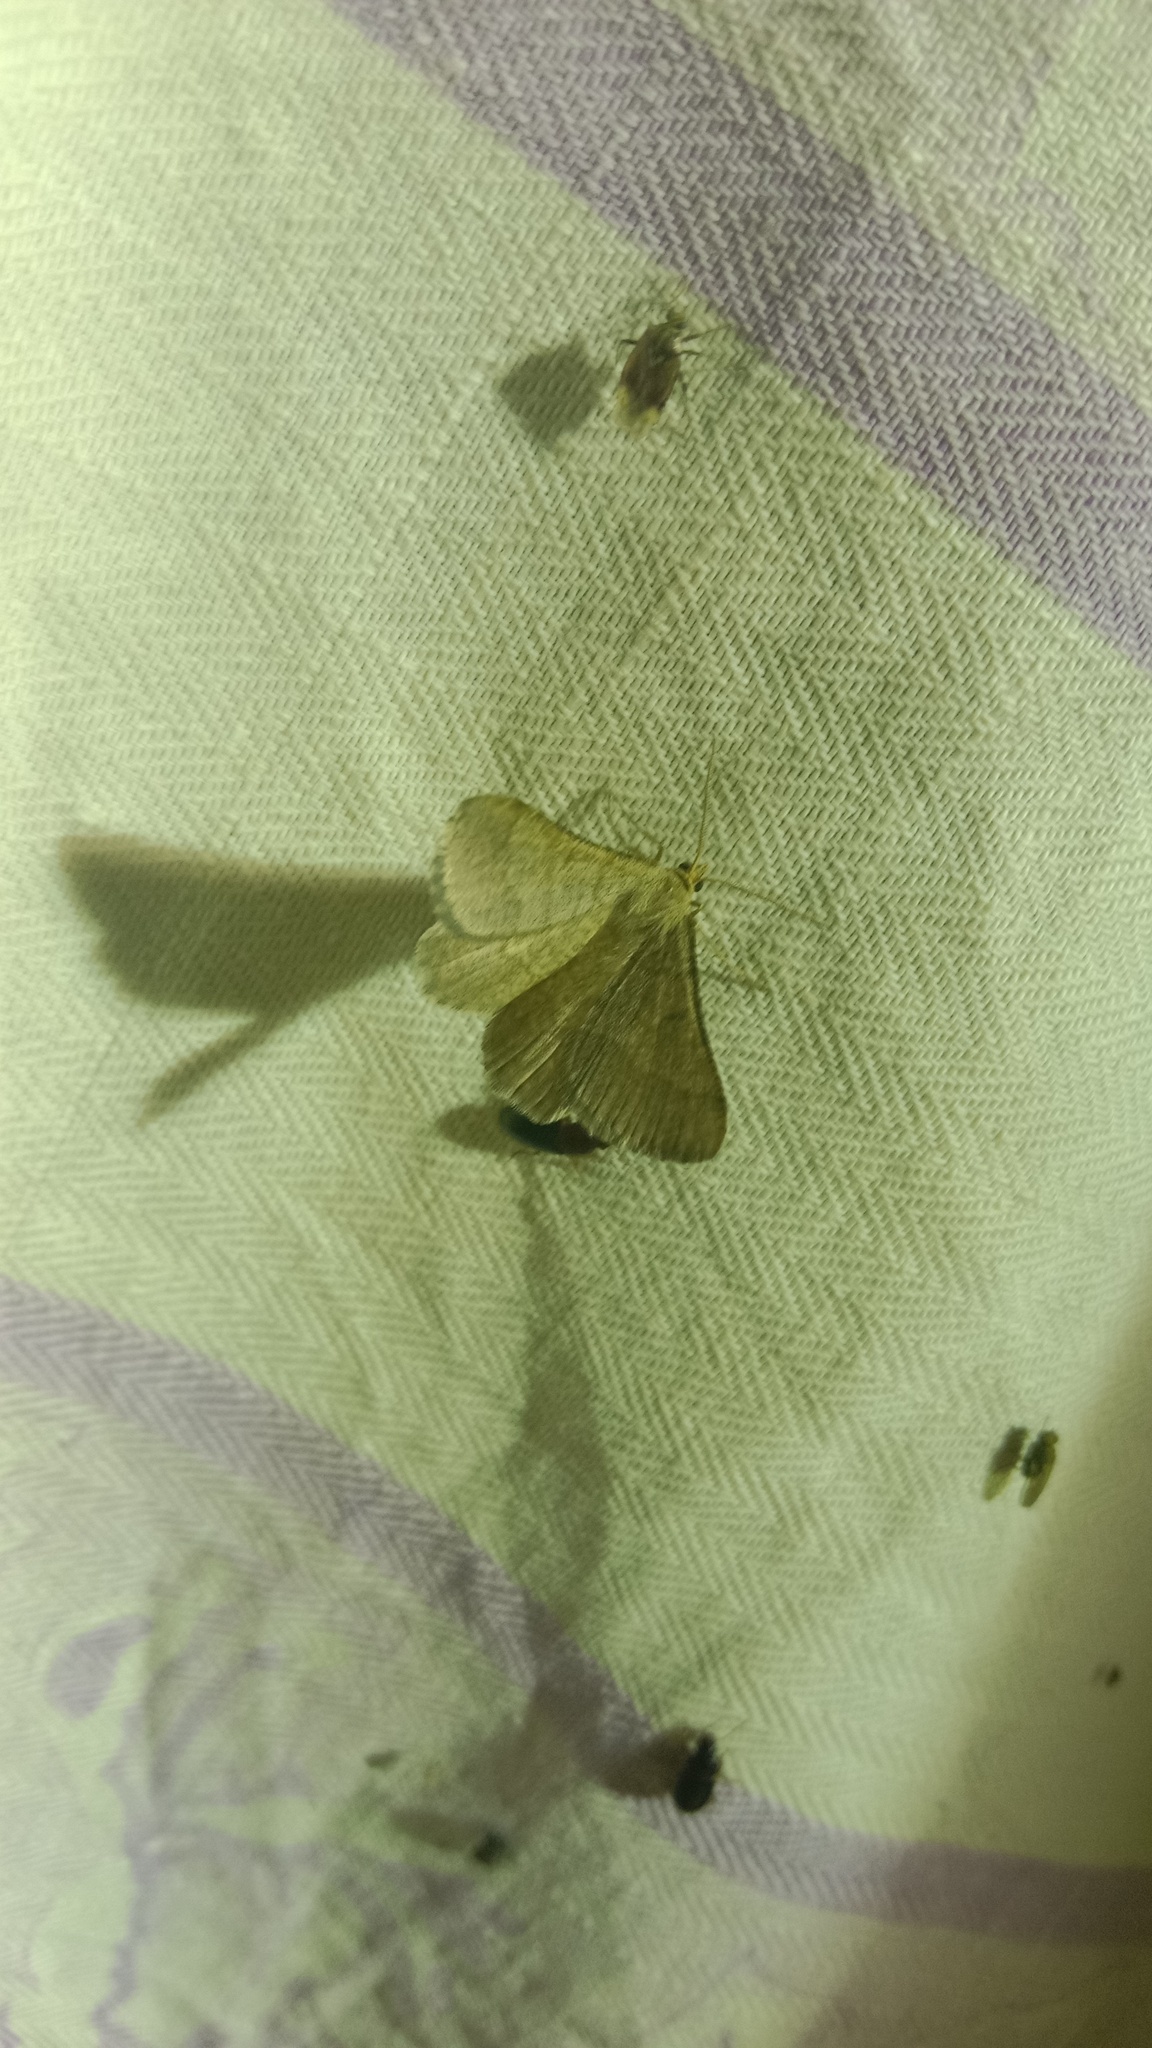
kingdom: Animalia
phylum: Arthropoda
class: Insecta
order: Lepidoptera
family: Geometridae
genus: Tephrina
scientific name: Tephrina murinaria
